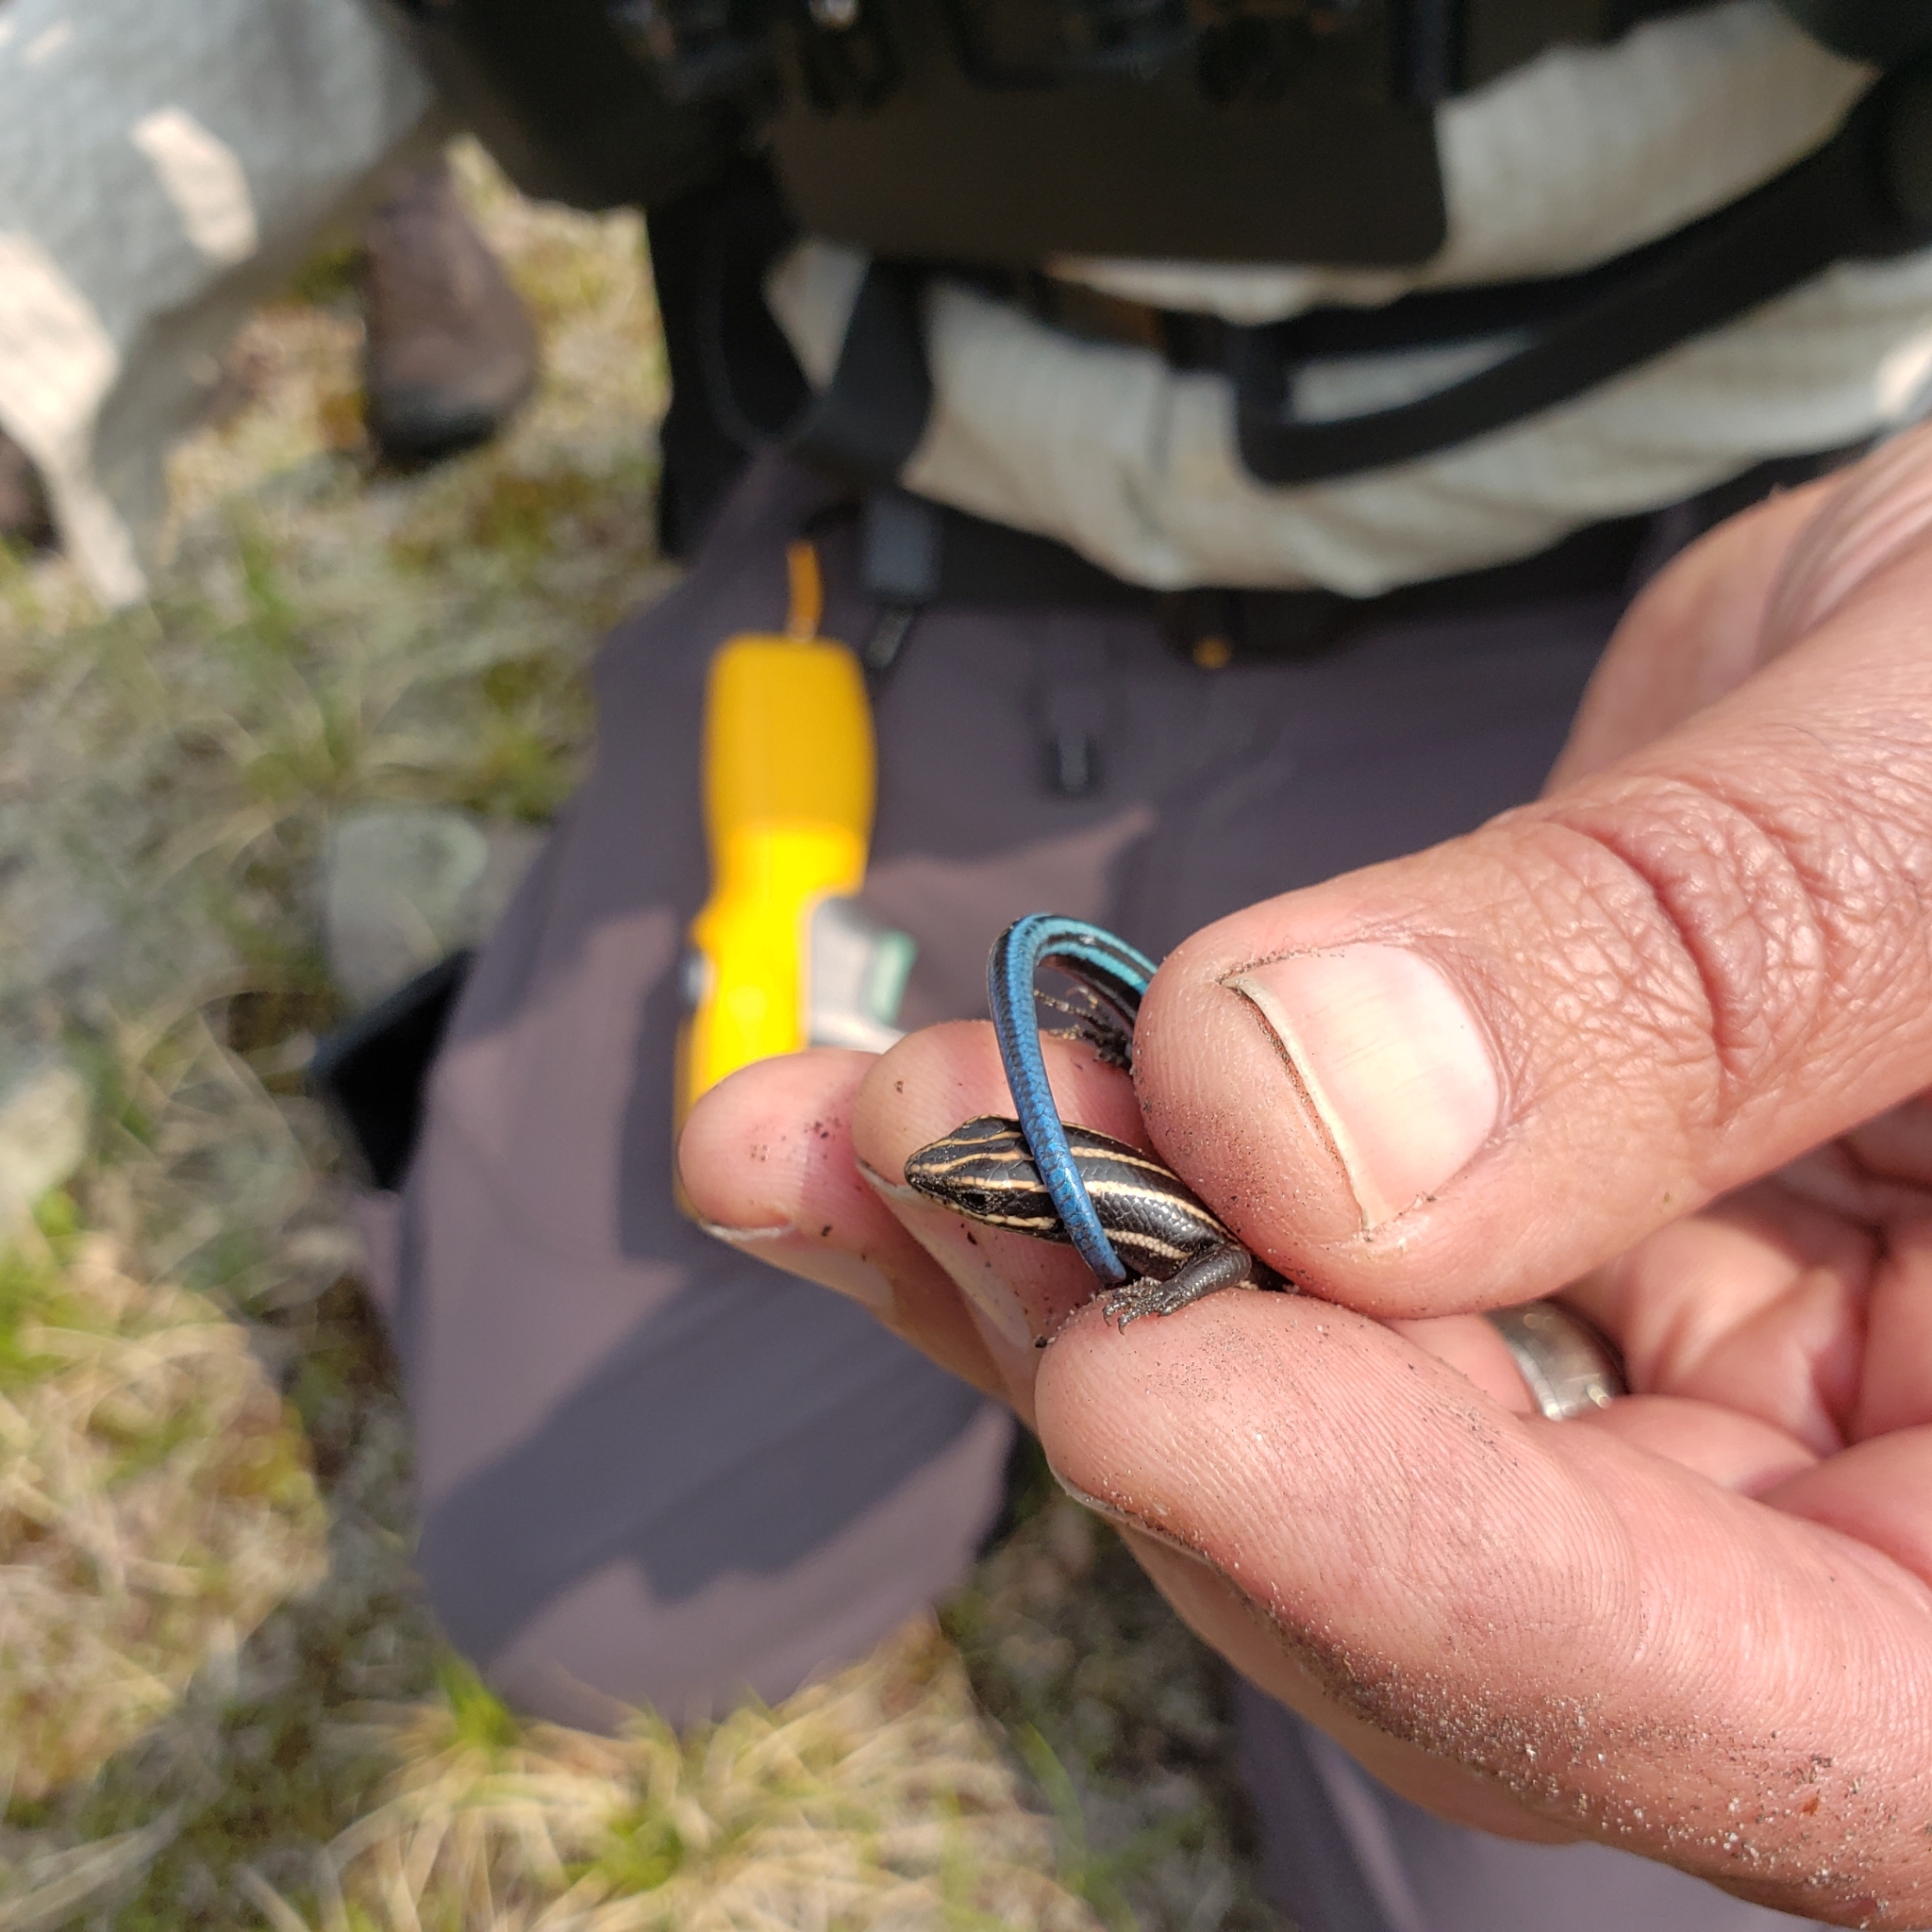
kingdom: Animalia
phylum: Chordata
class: Squamata
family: Scincidae
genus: Plestiodon
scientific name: Plestiodon fasciatus
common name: Five-lined skink
